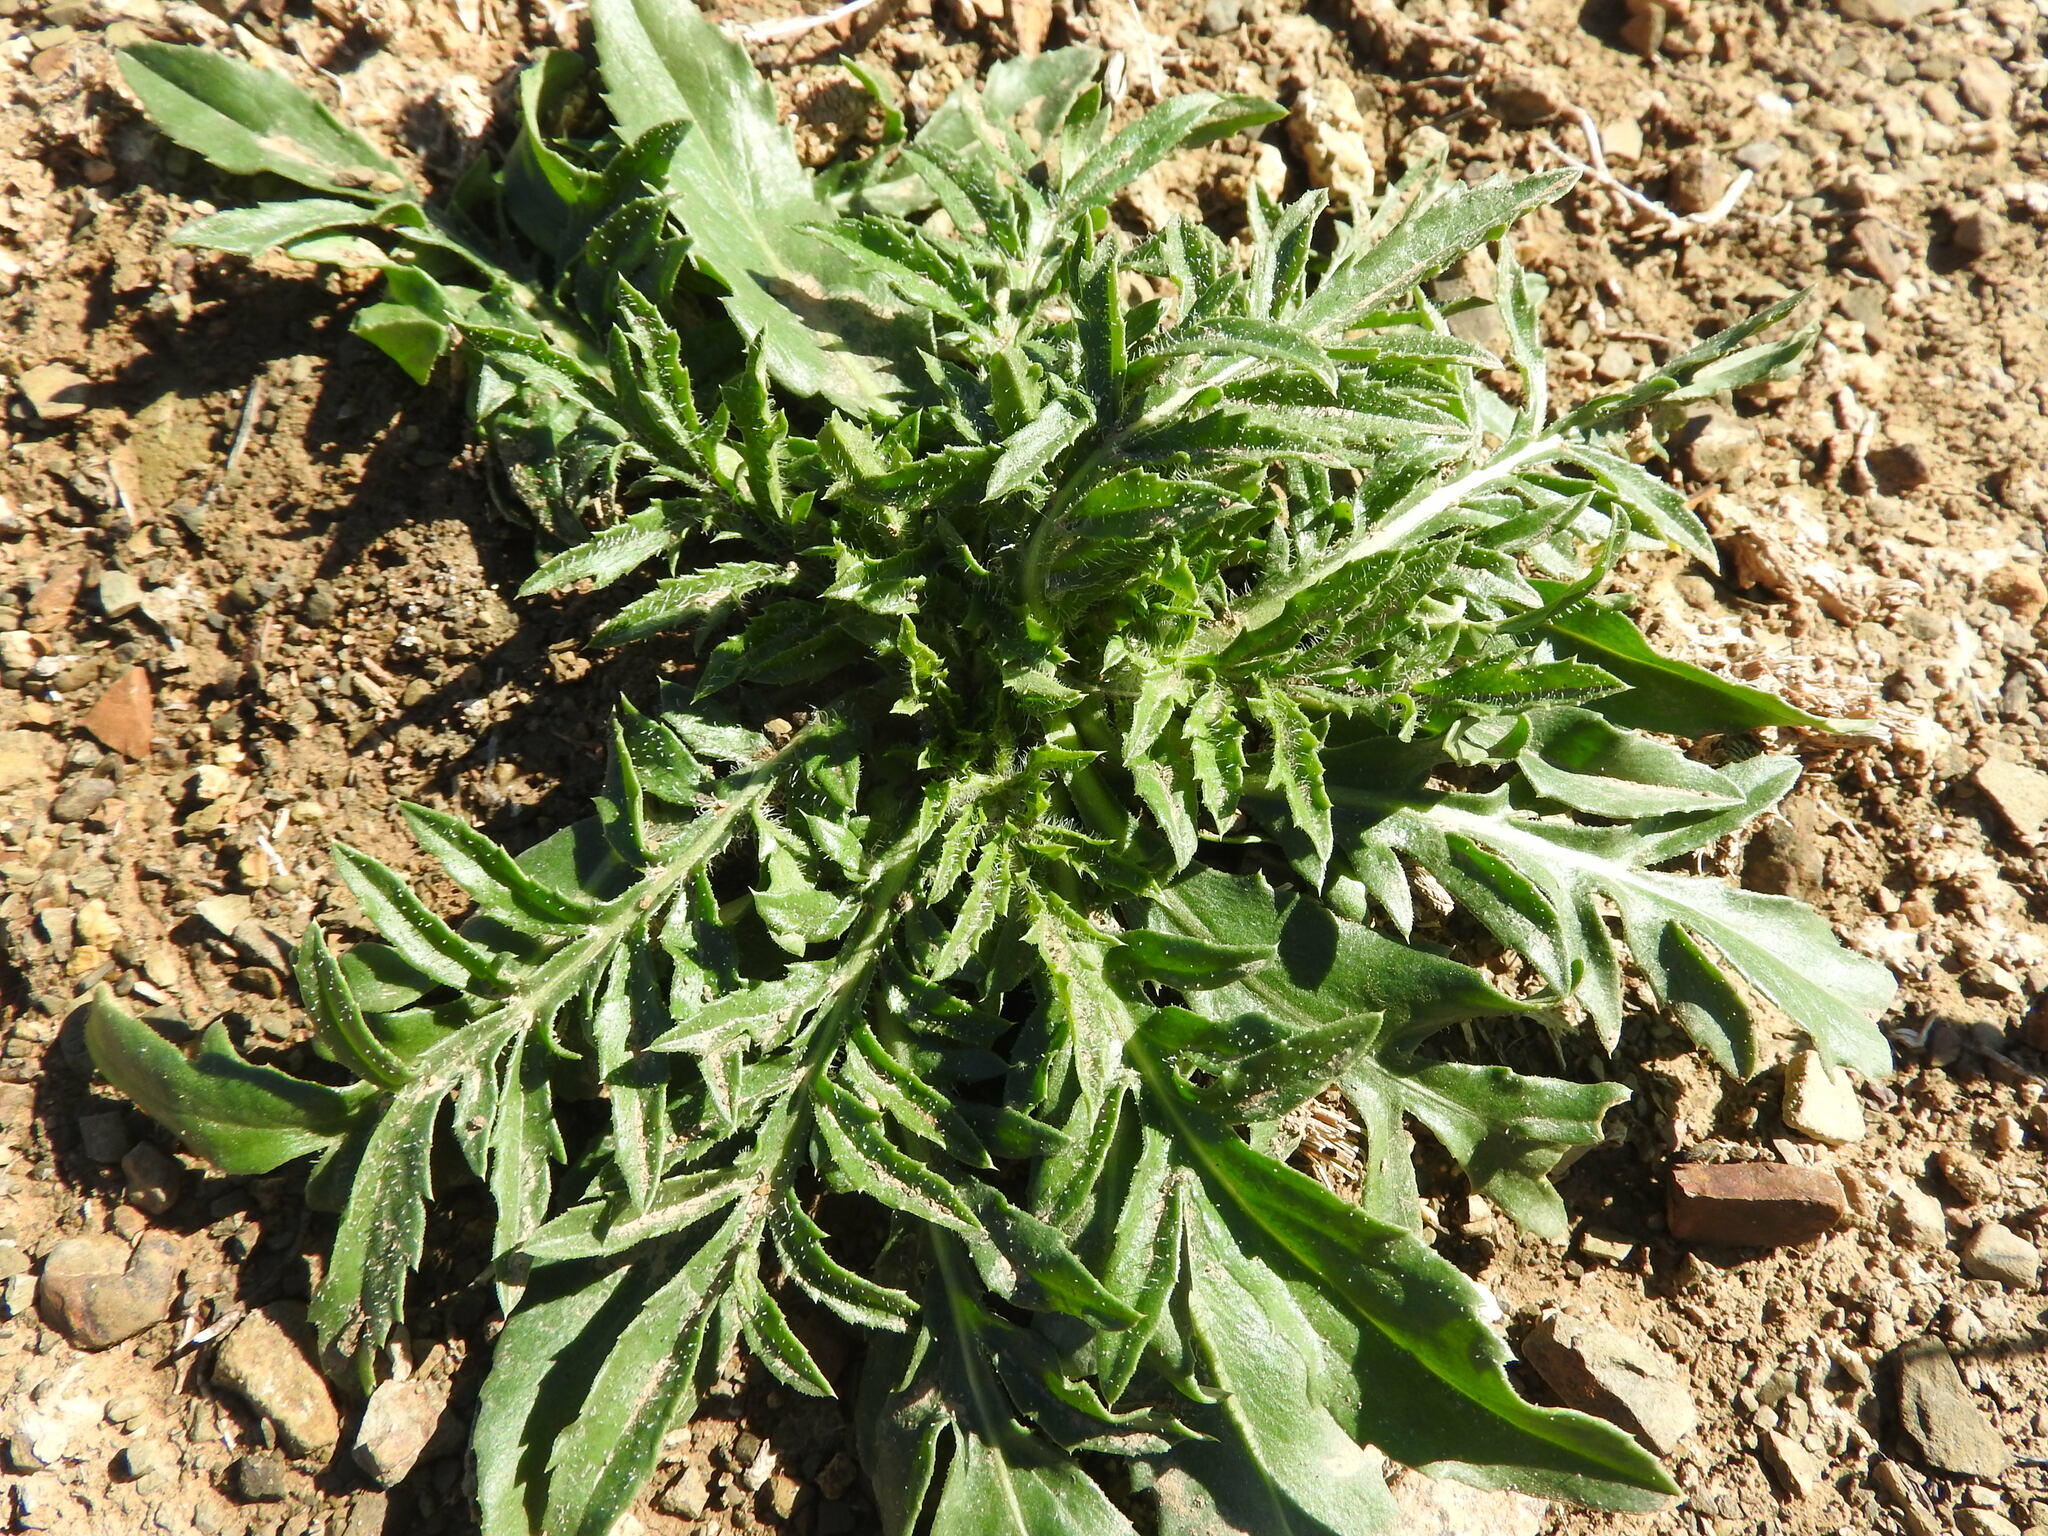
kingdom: Plantae
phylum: Tracheophyta
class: Magnoliopsida
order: Asterales
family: Asteraceae
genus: Carthamus
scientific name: Carthamus lanatus
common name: Downy safflower
